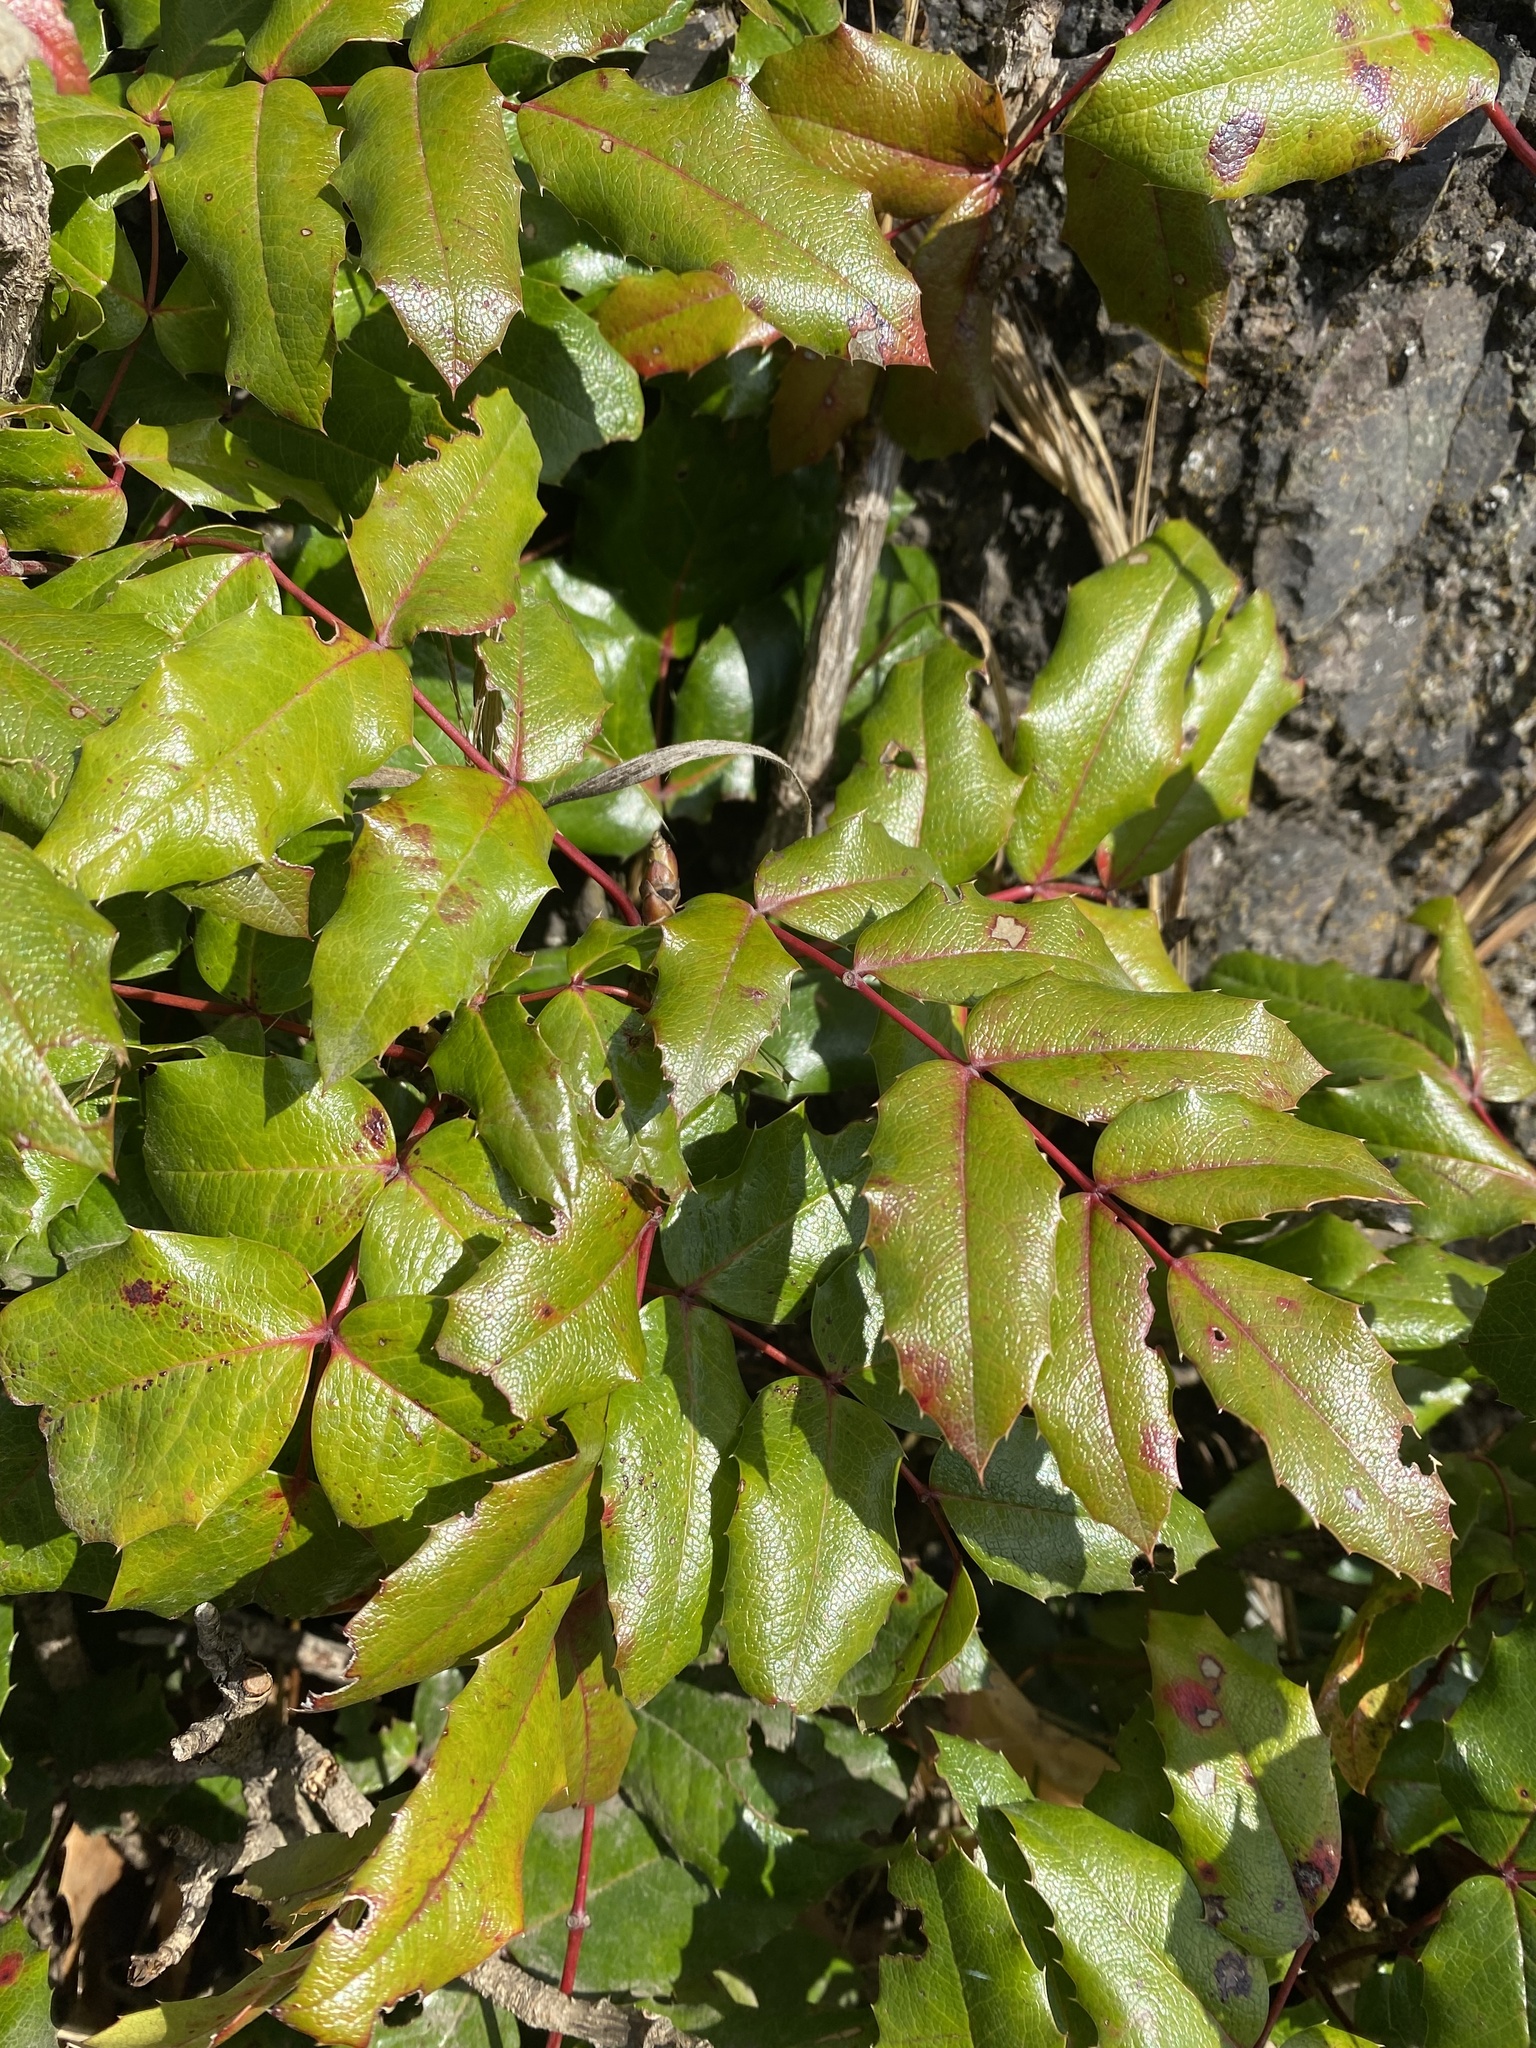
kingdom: Plantae
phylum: Tracheophyta
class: Magnoliopsida
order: Ranunculales
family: Berberidaceae
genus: Mahonia
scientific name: Mahonia aquifolium
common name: Oregon-grape
